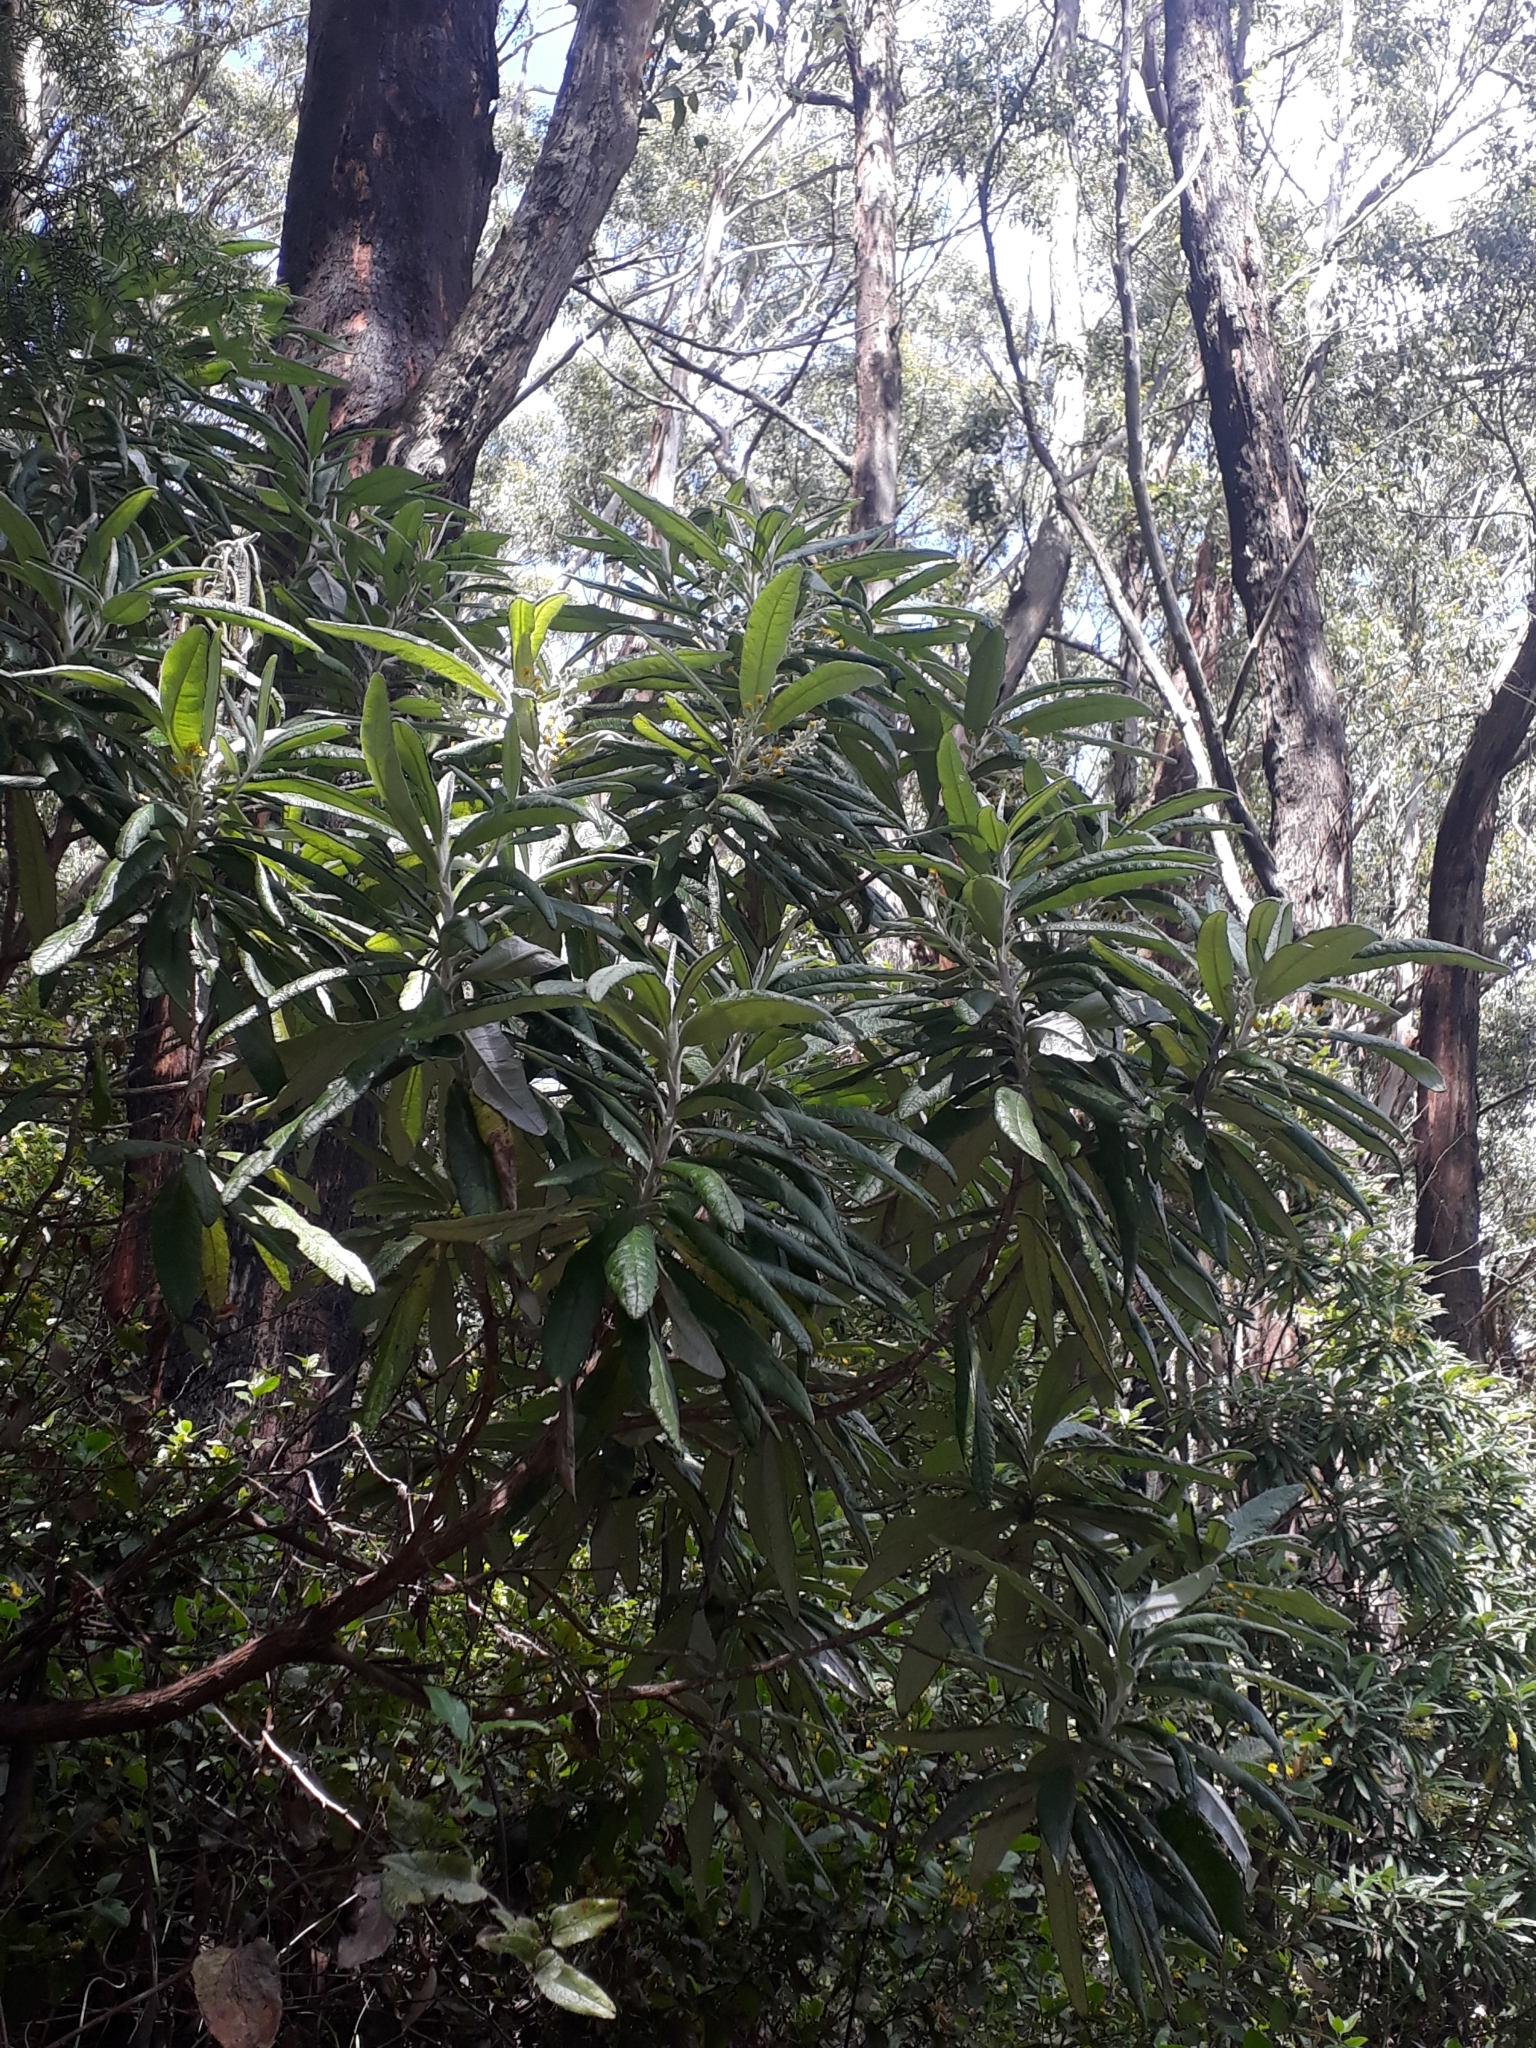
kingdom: Plantae
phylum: Tracheophyta
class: Magnoliopsida
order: Asterales
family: Asteraceae
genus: Bedfordia
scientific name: Bedfordia arborescens
